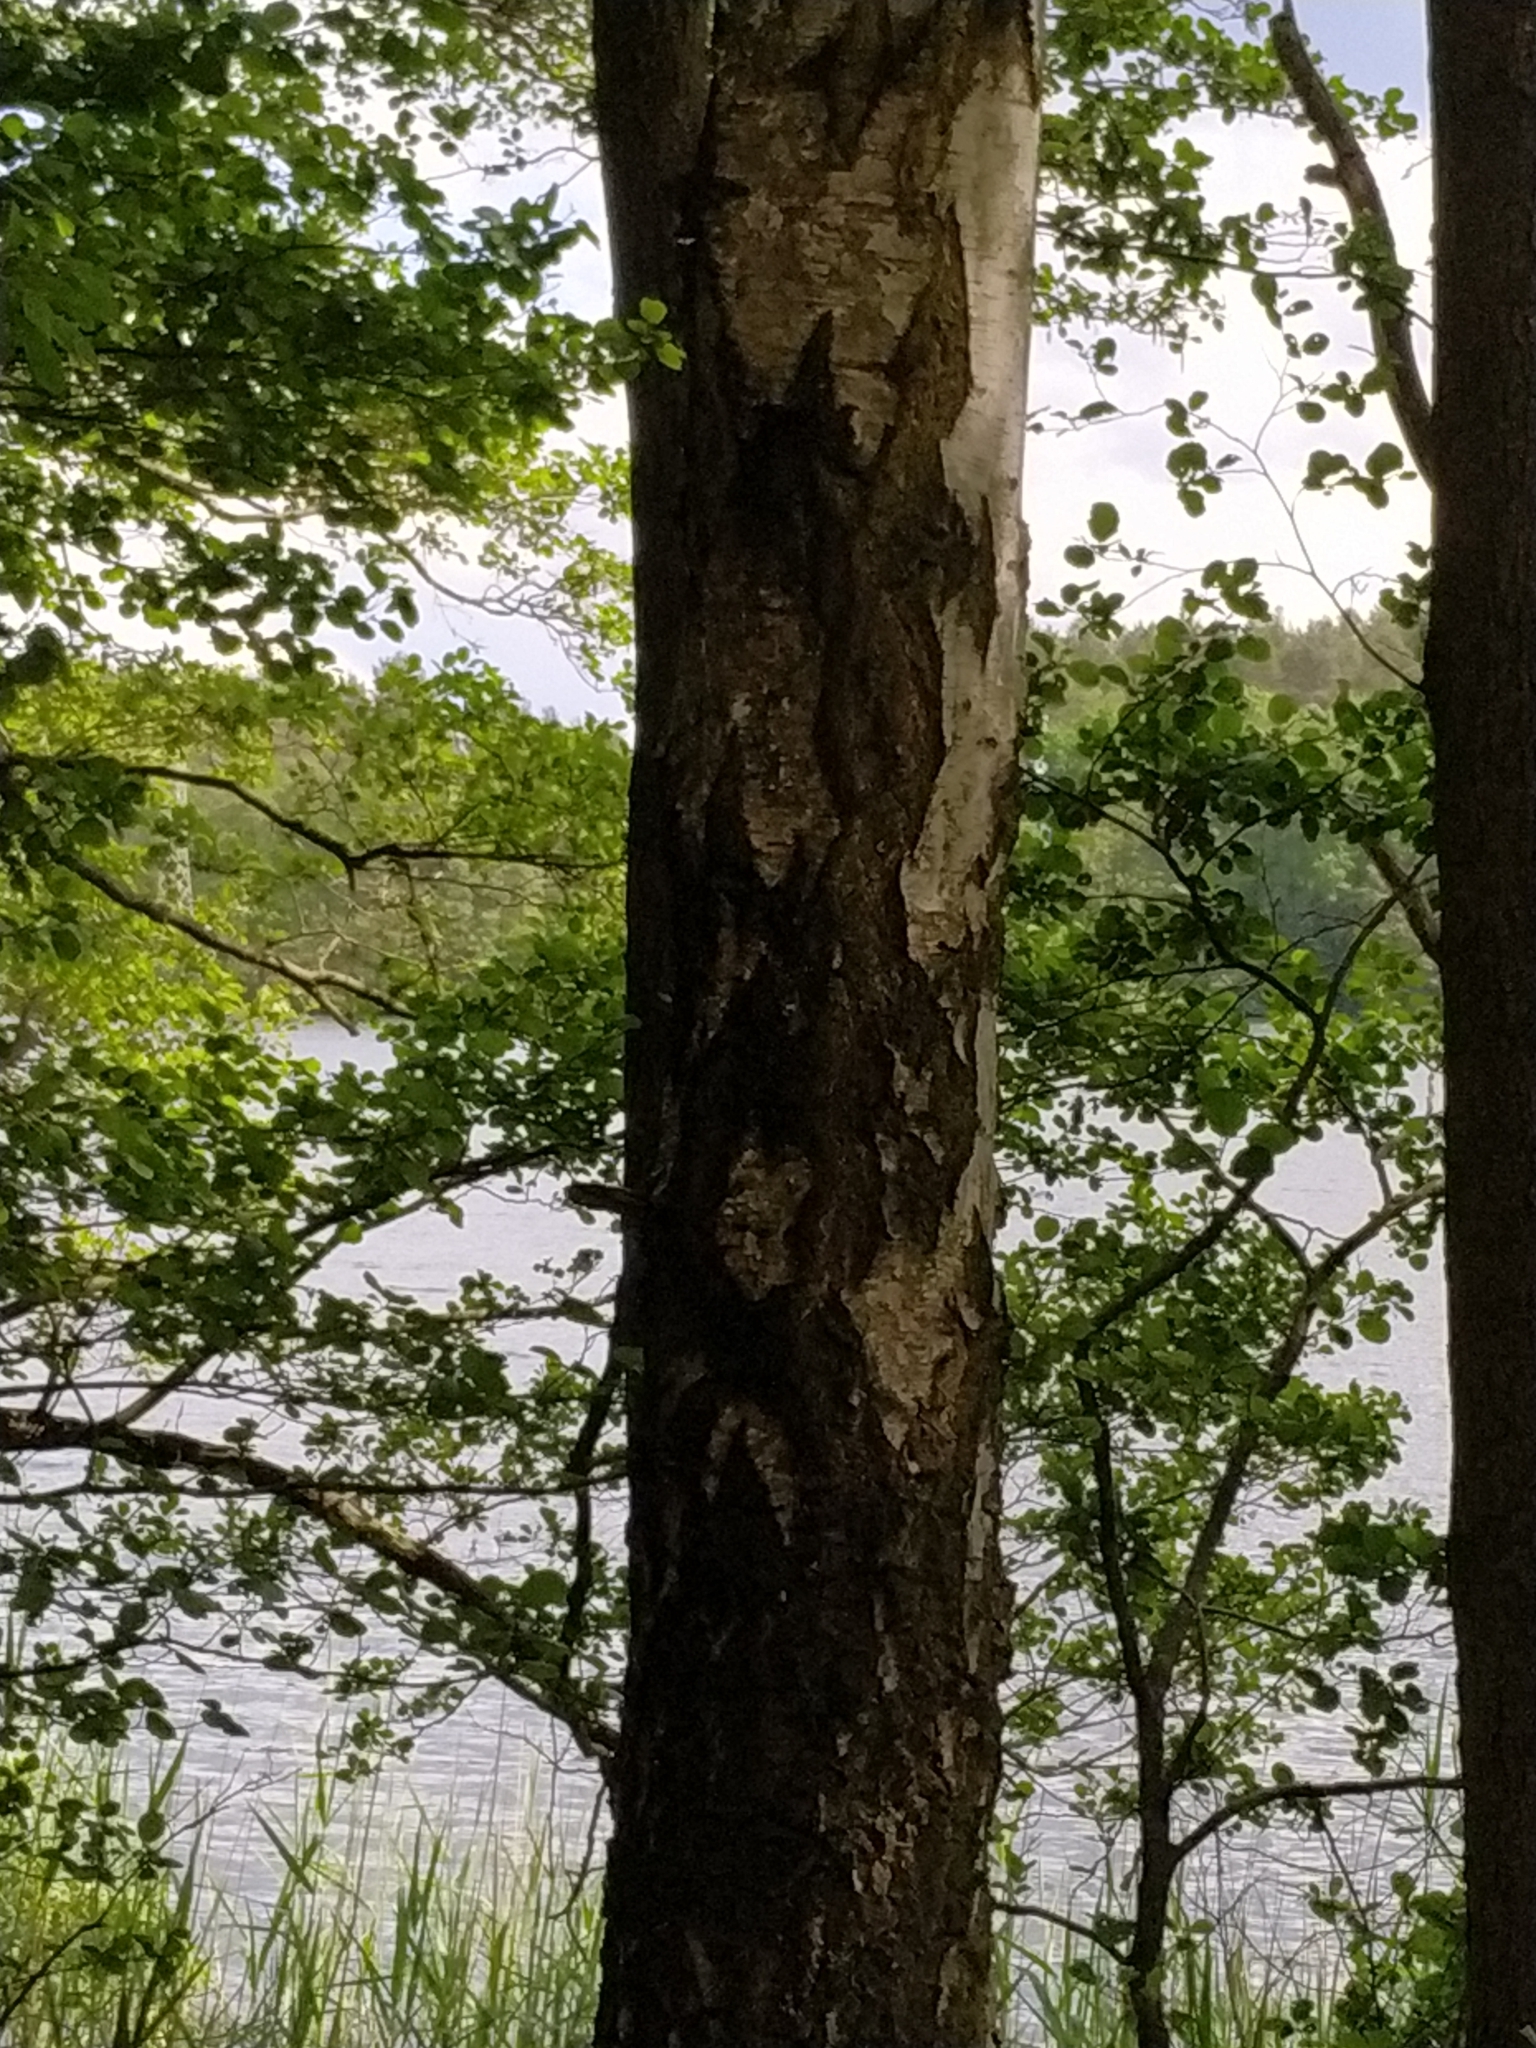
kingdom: Plantae
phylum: Tracheophyta
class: Magnoliopsida
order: Fagales
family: Betulaceae
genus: Betula
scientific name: Betula pendula
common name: Silver birch
